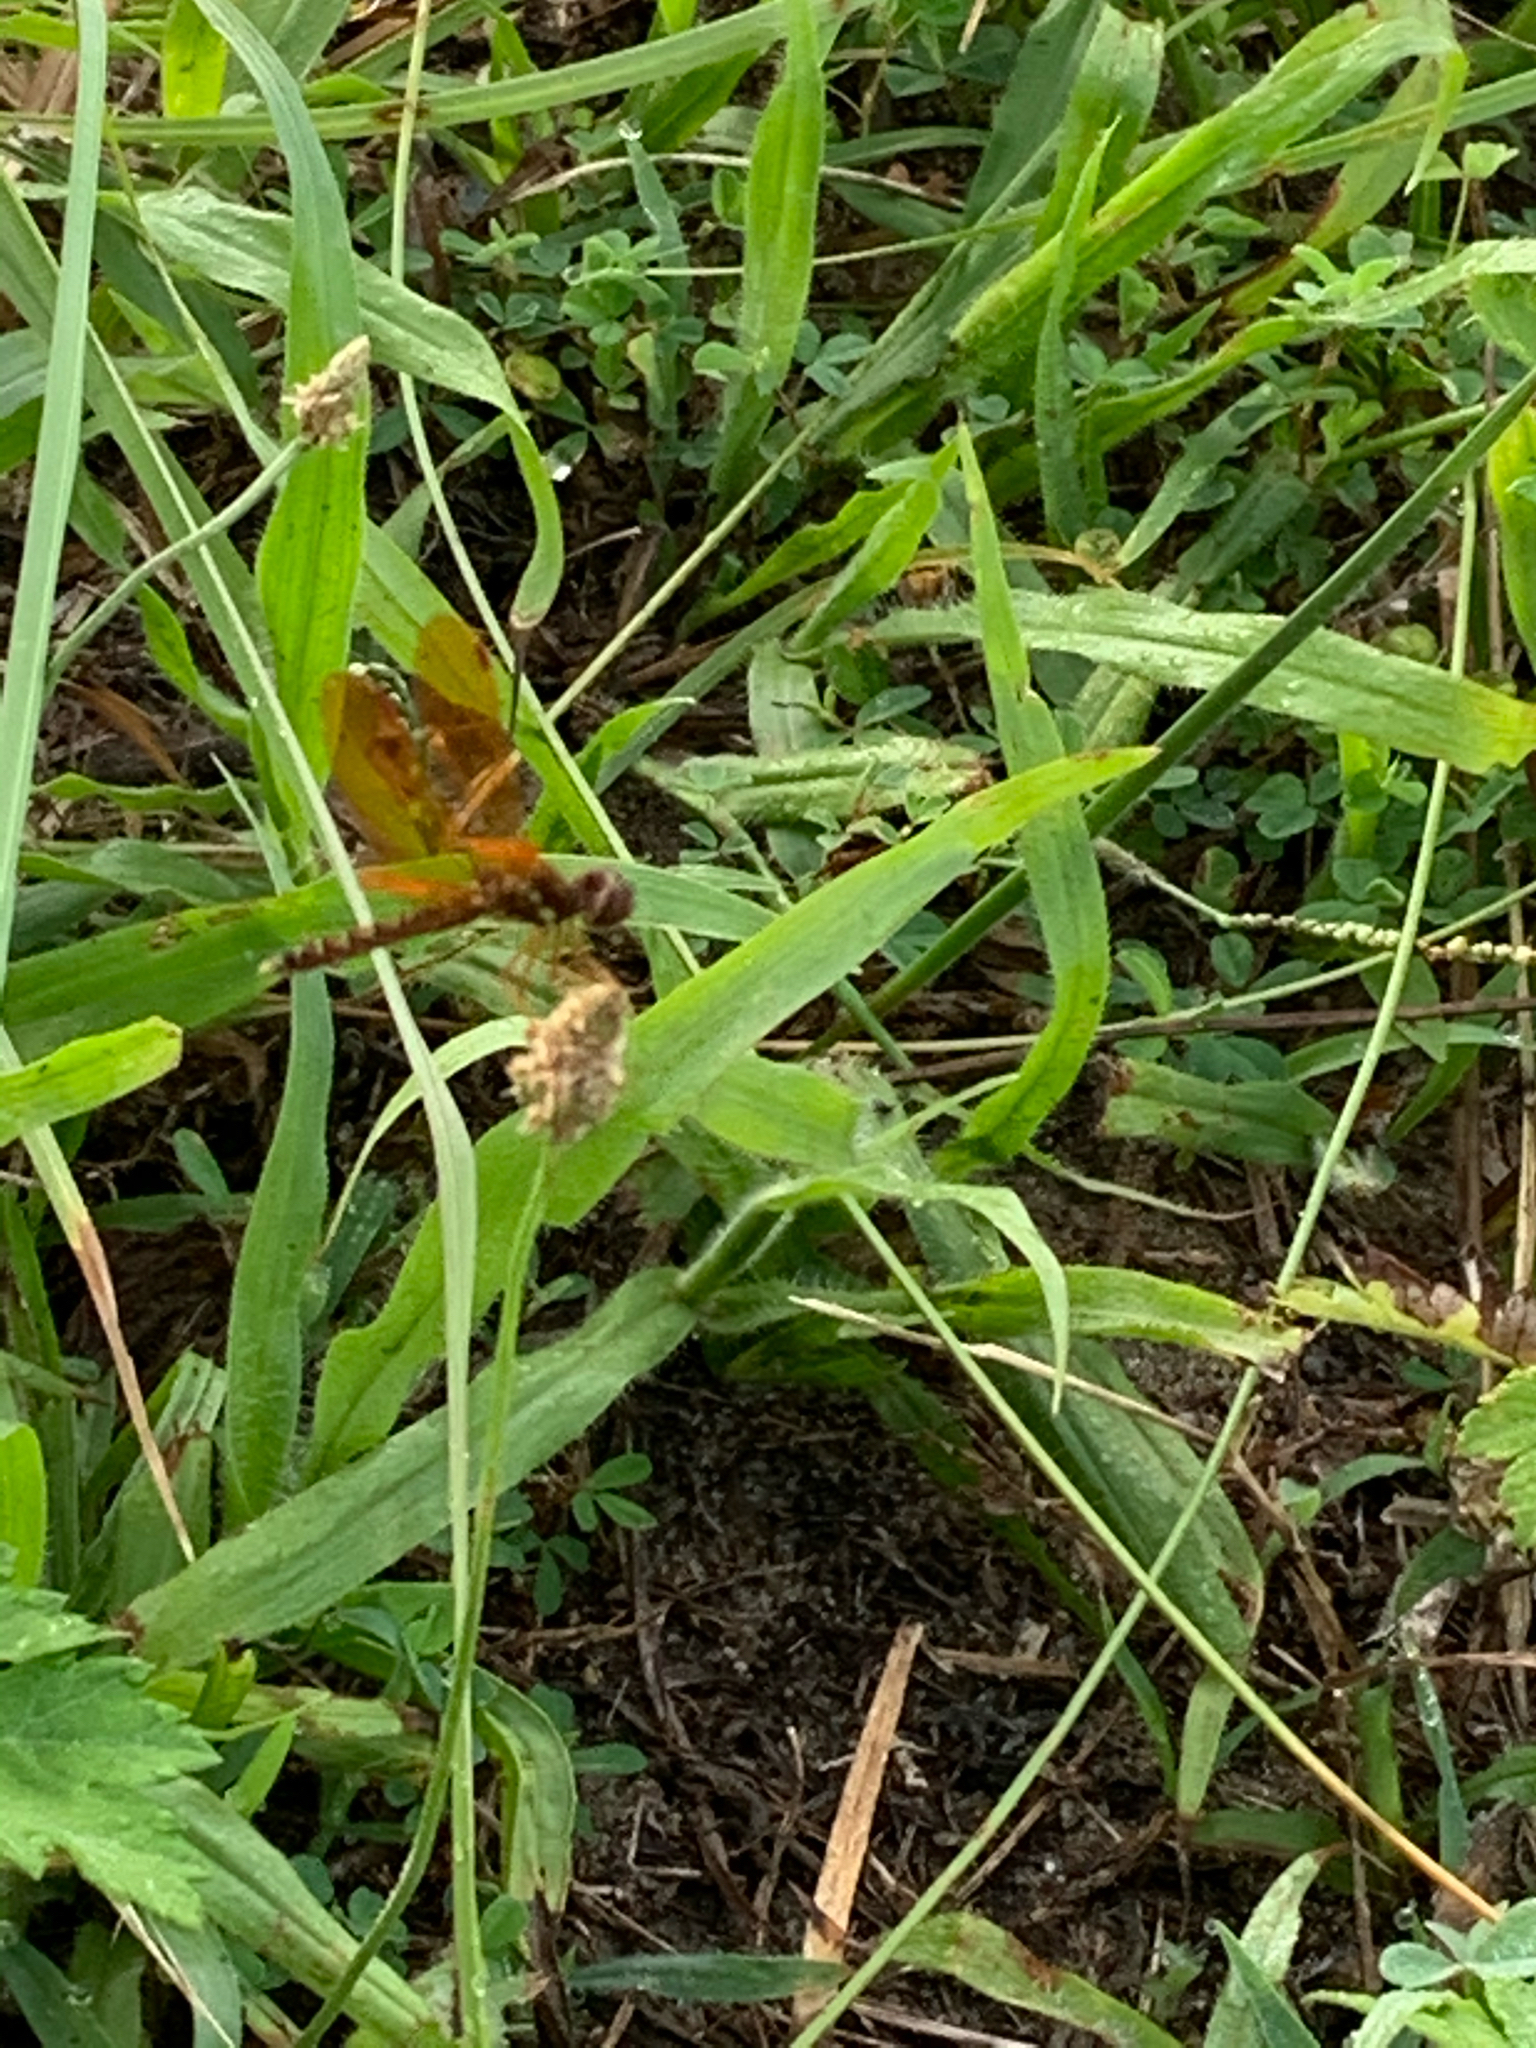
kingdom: Animalia
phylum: Arthropoda
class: Insecta
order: Odonata
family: Libellulidae
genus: Perithemis
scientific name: Perithemis tenera
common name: Eastern amberwing
